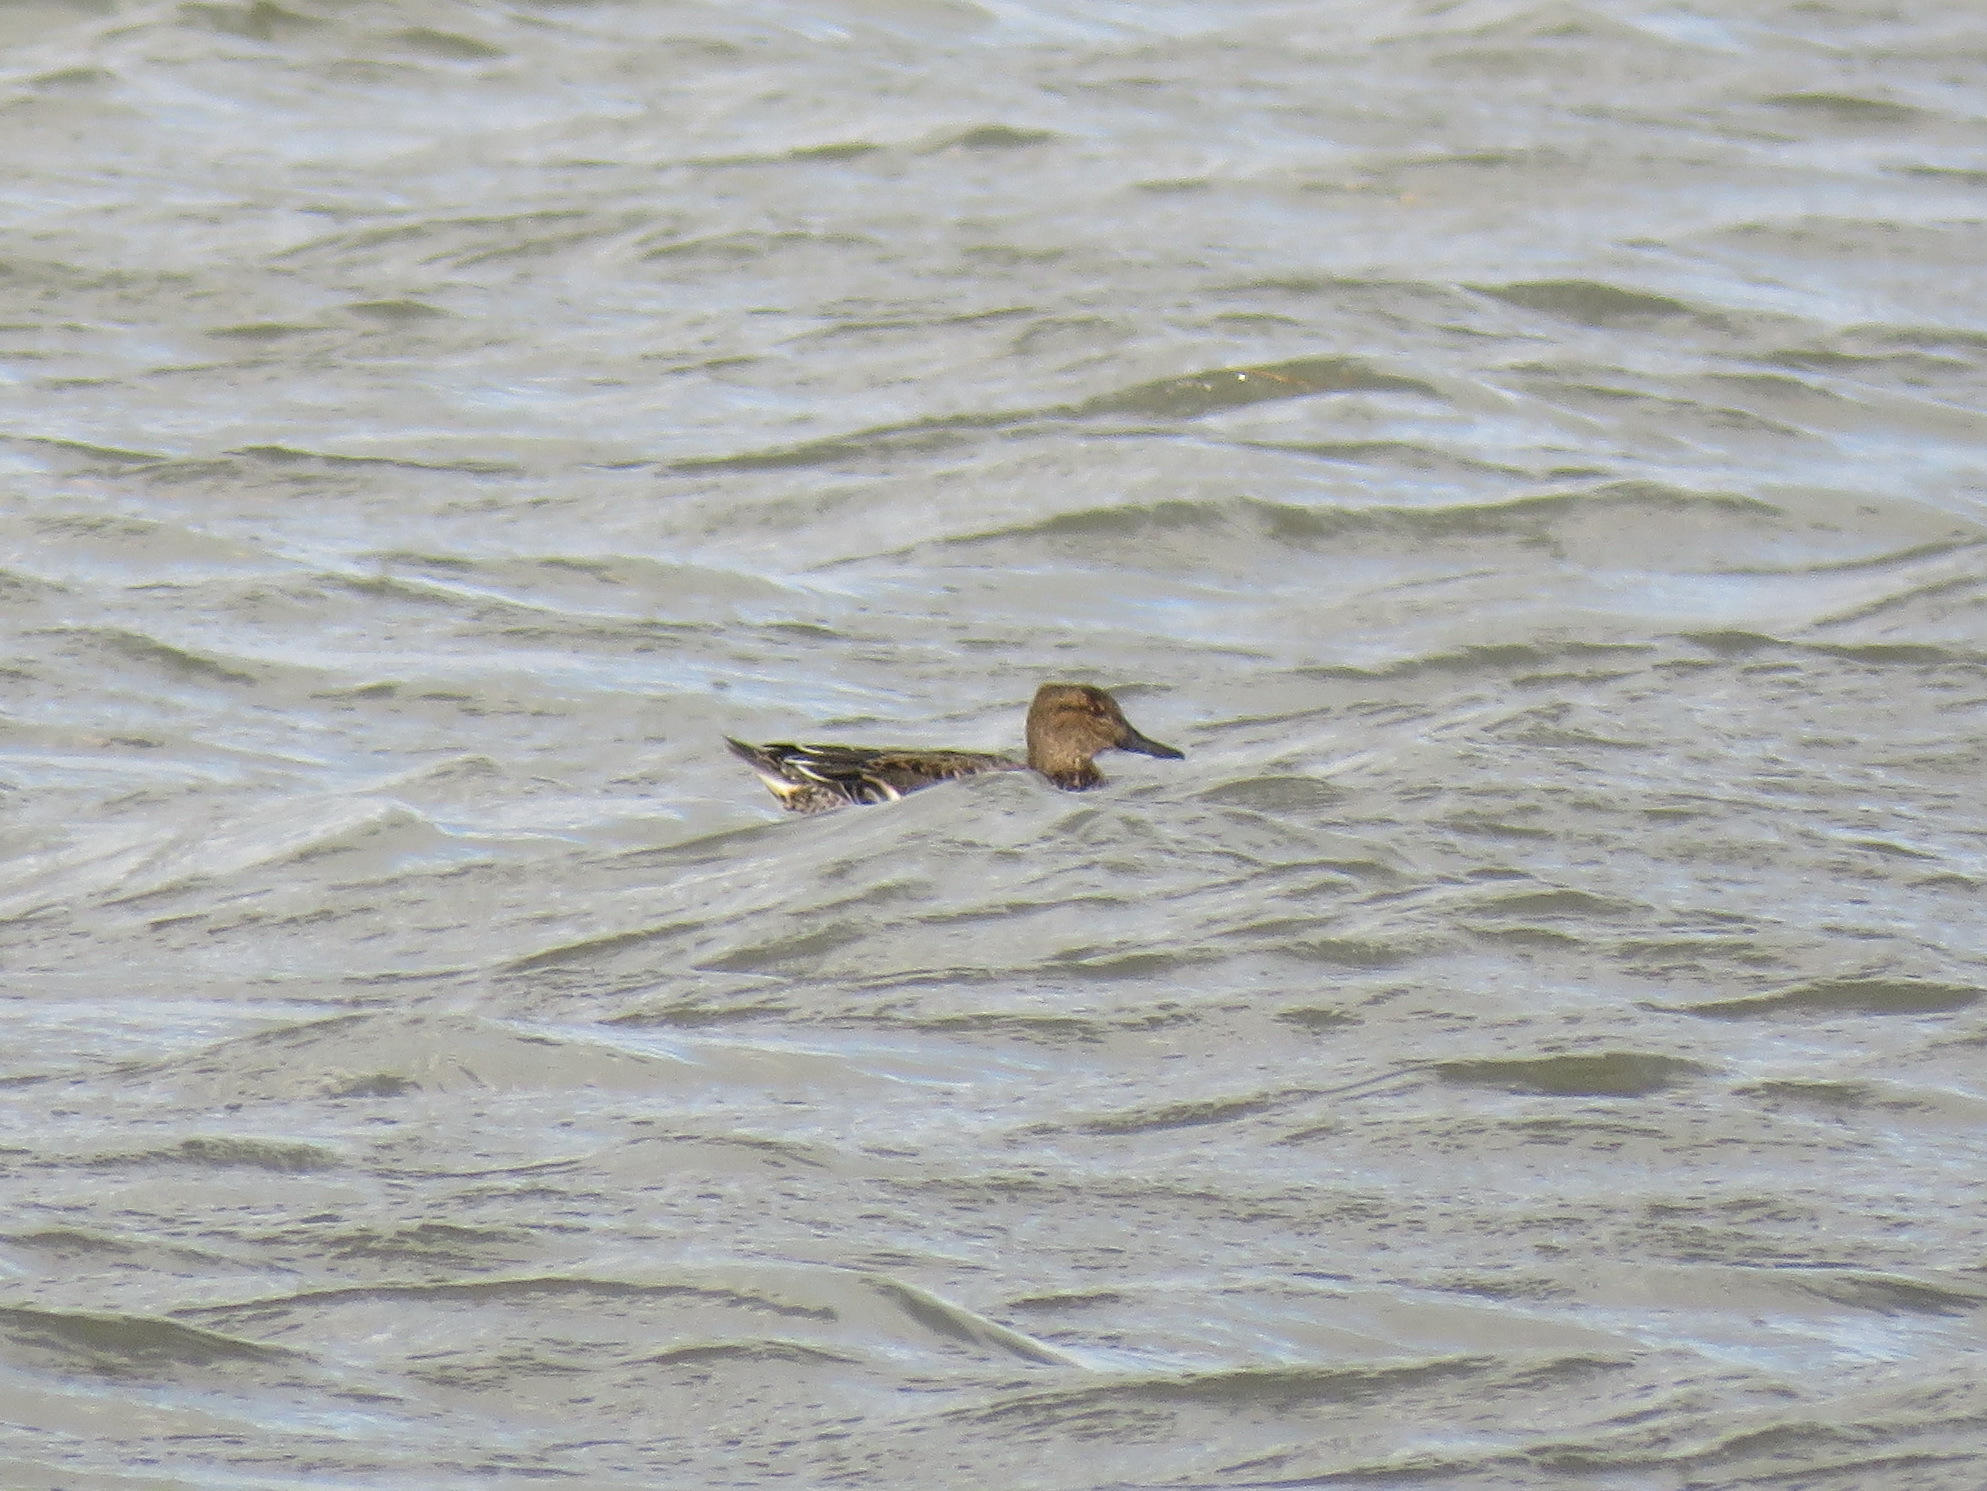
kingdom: Animalia
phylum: Chordata
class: Aves
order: Anseriformes
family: Anatidae
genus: Anas
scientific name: Anas crecca
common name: Eurasian teal
